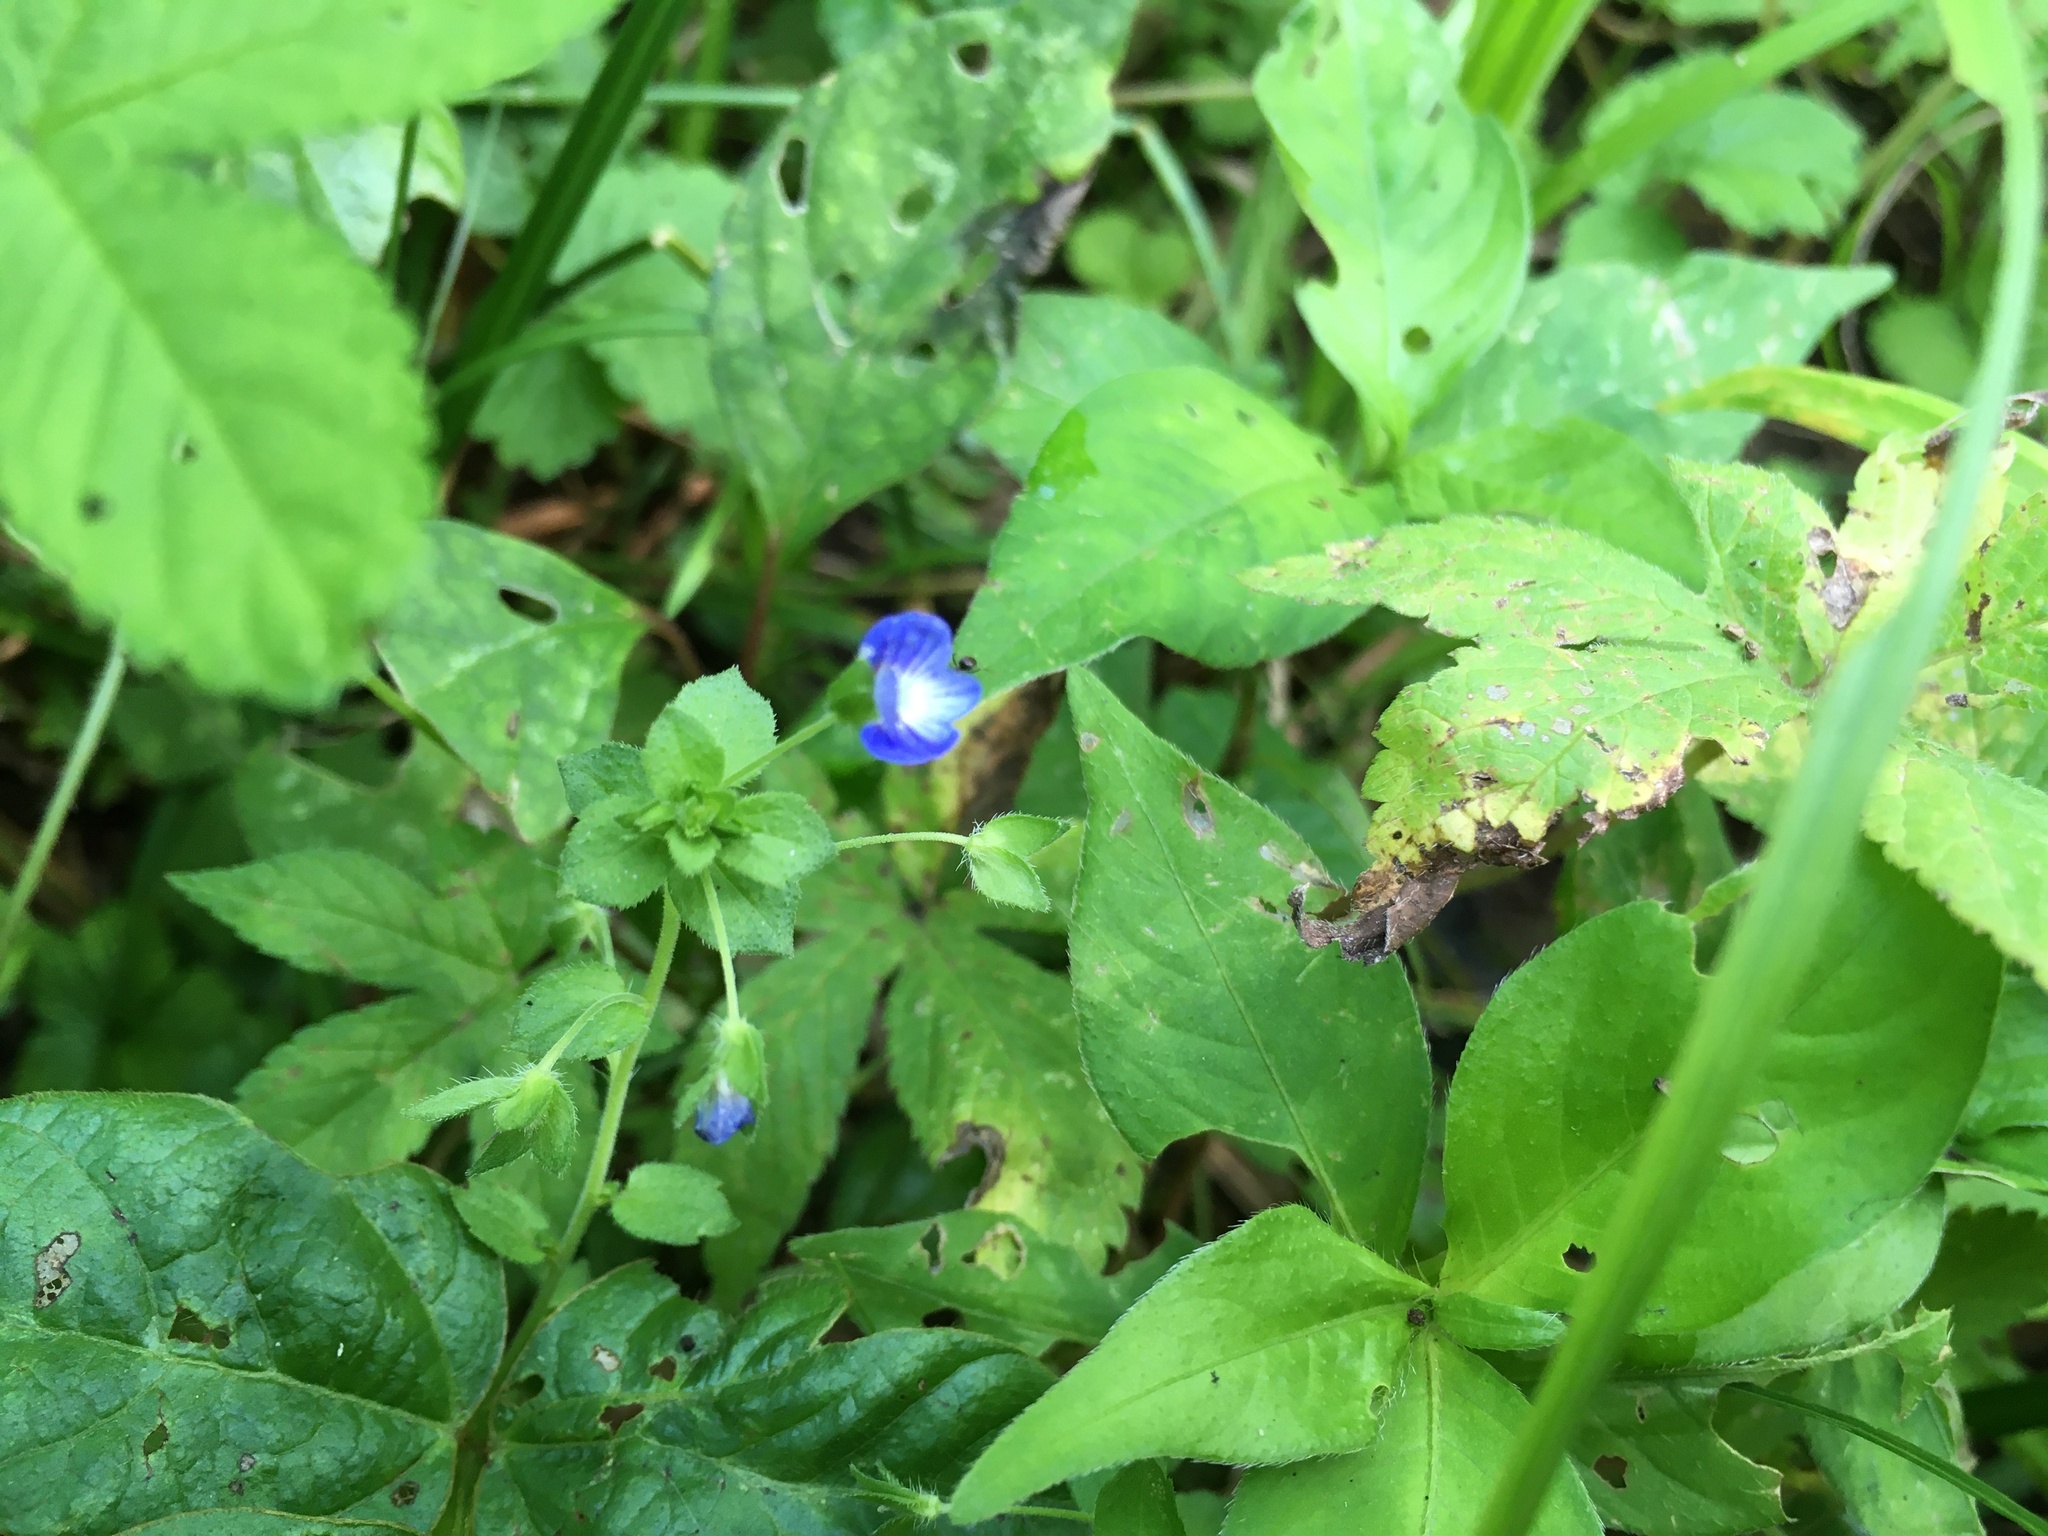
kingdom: Plantae
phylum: Tracheophyta
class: Magnoliopsida
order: Lamiales
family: Plantaginaceae
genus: Veronica
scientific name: Veronica persica
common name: Common field-speedwell
